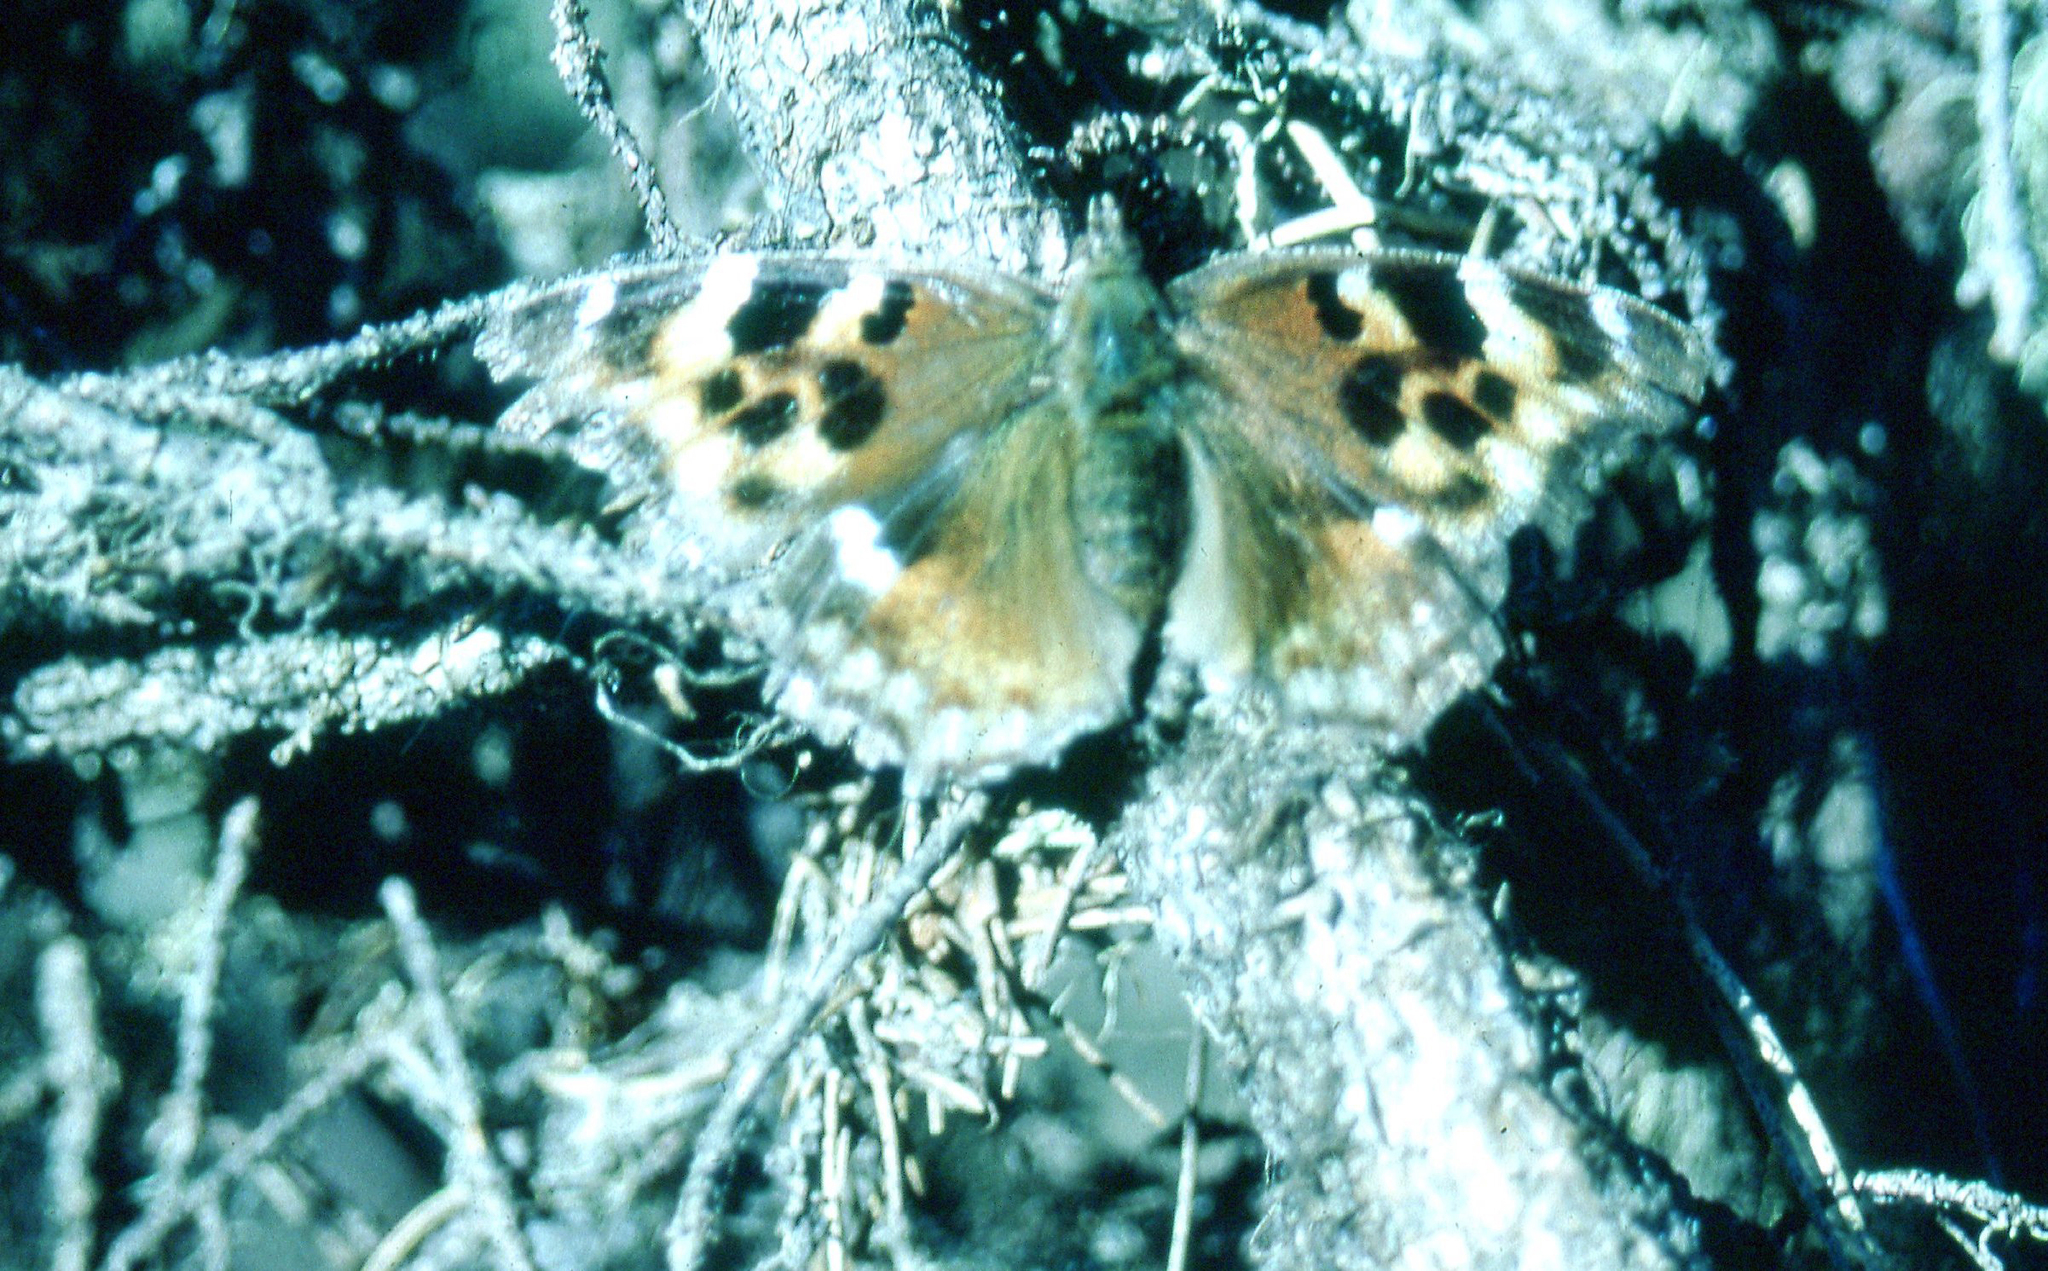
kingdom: Animalia
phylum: Arthropoda
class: Insecta
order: Lepidoptera
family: Nymphalidae
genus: Polygonia
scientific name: Polygonia vaualbum
